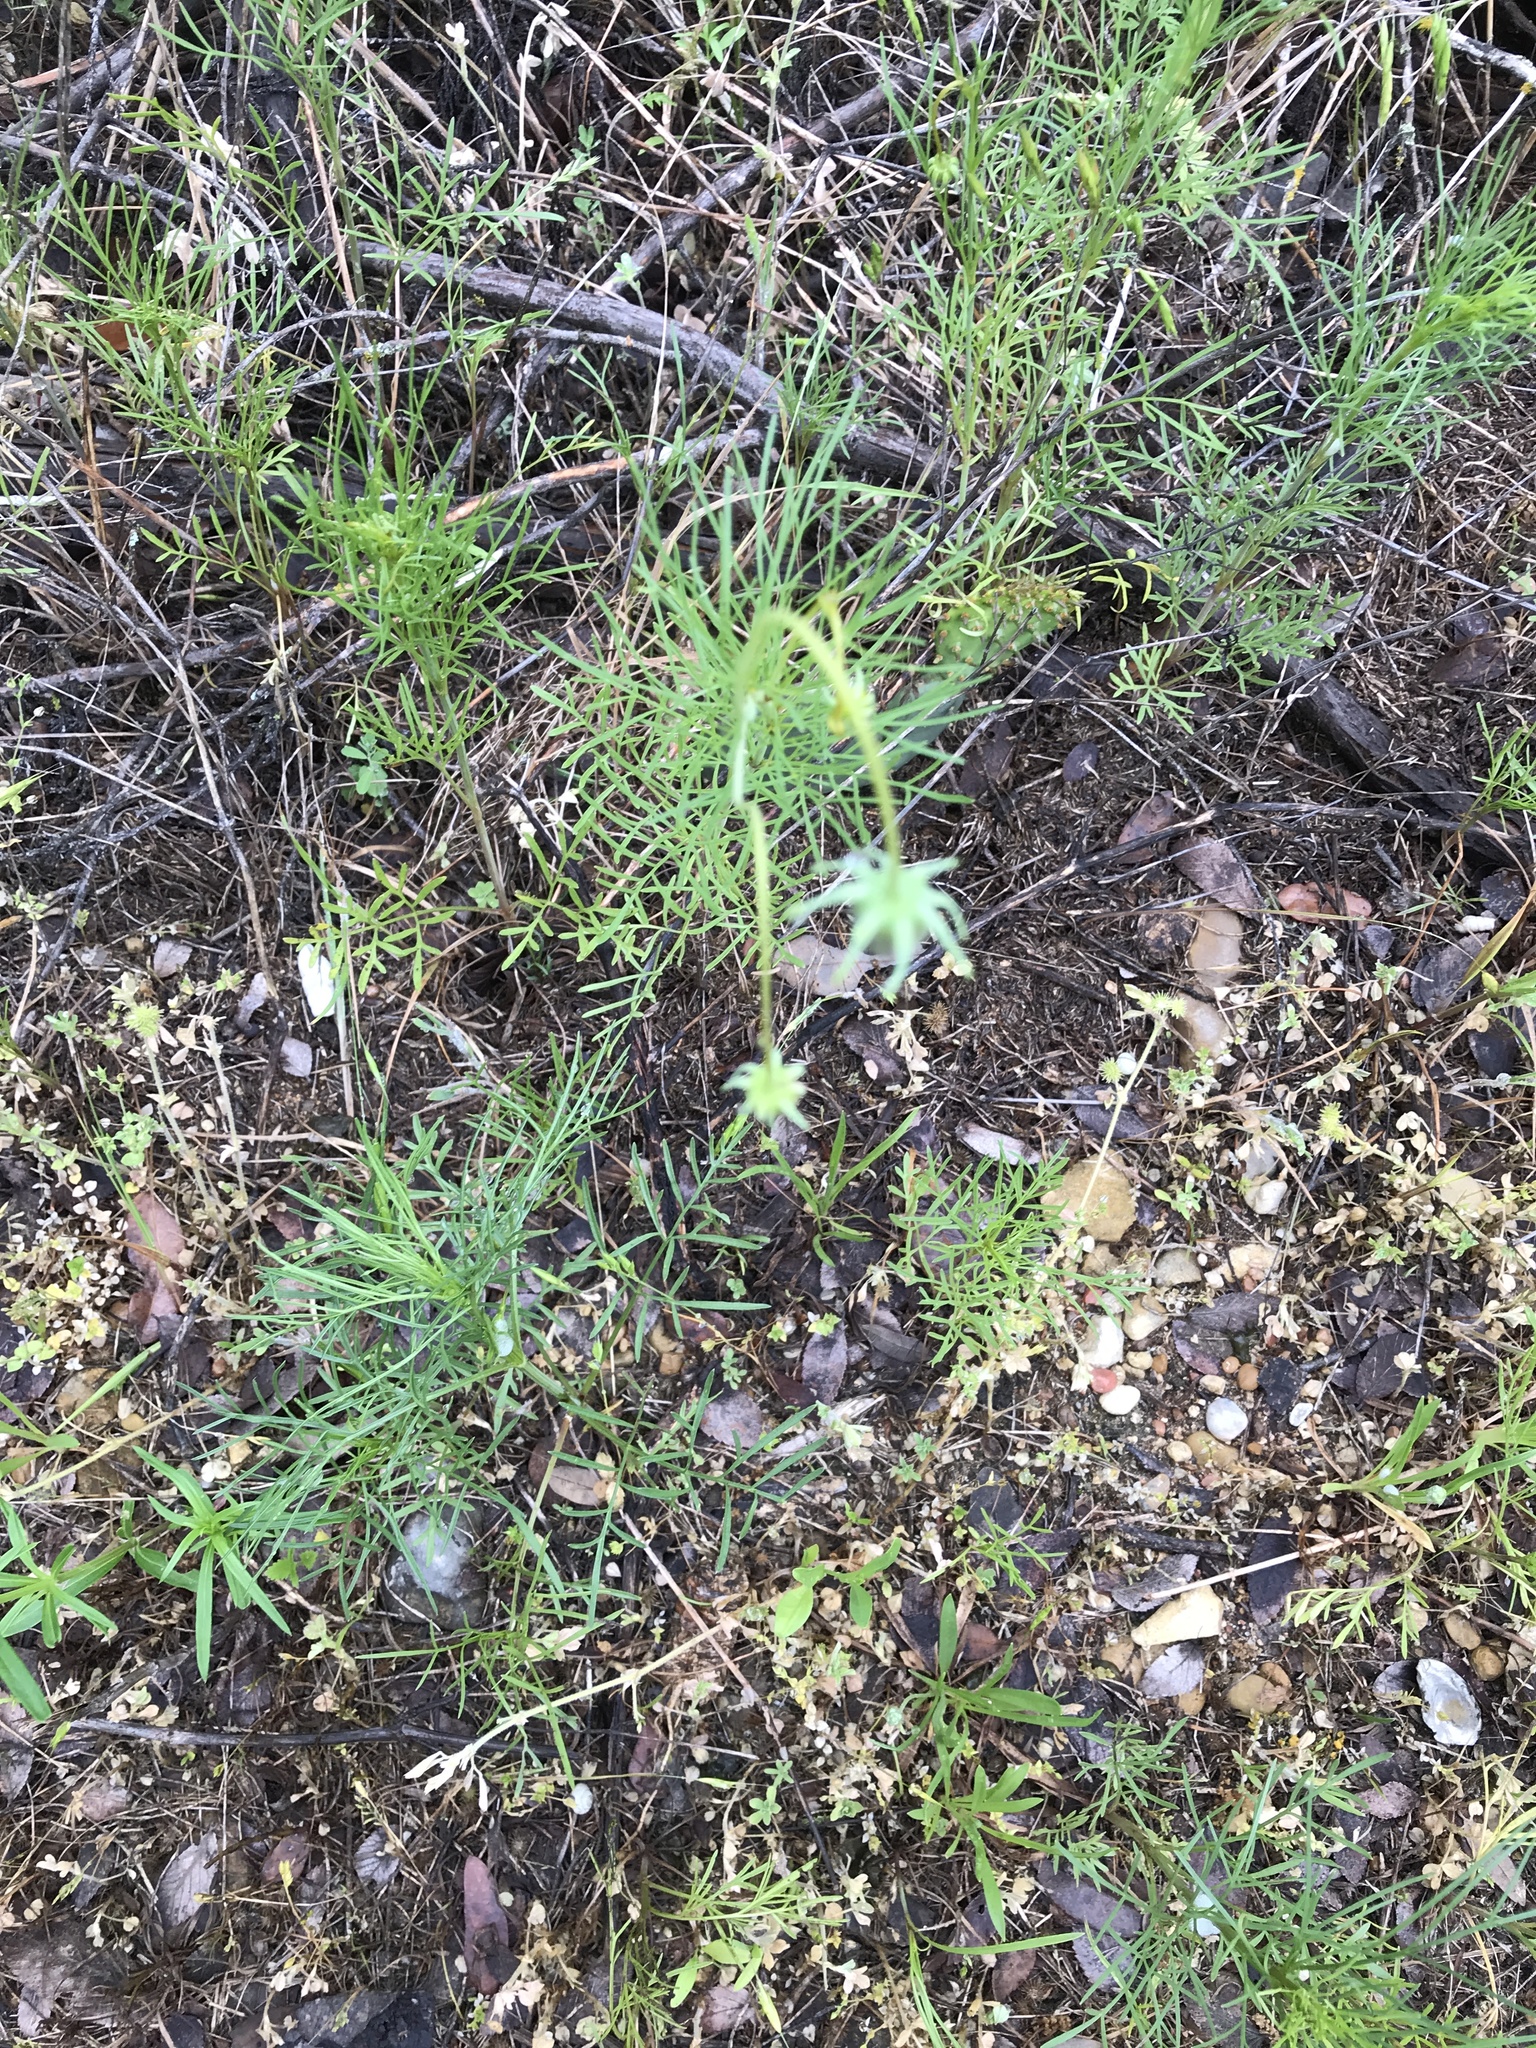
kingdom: Plantae
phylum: Tracheophyta
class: Magnoliopsida
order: Asterales
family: Asteraceae
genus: Thelesperma
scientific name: Thelesperma filifolium
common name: Stiff greenthread
